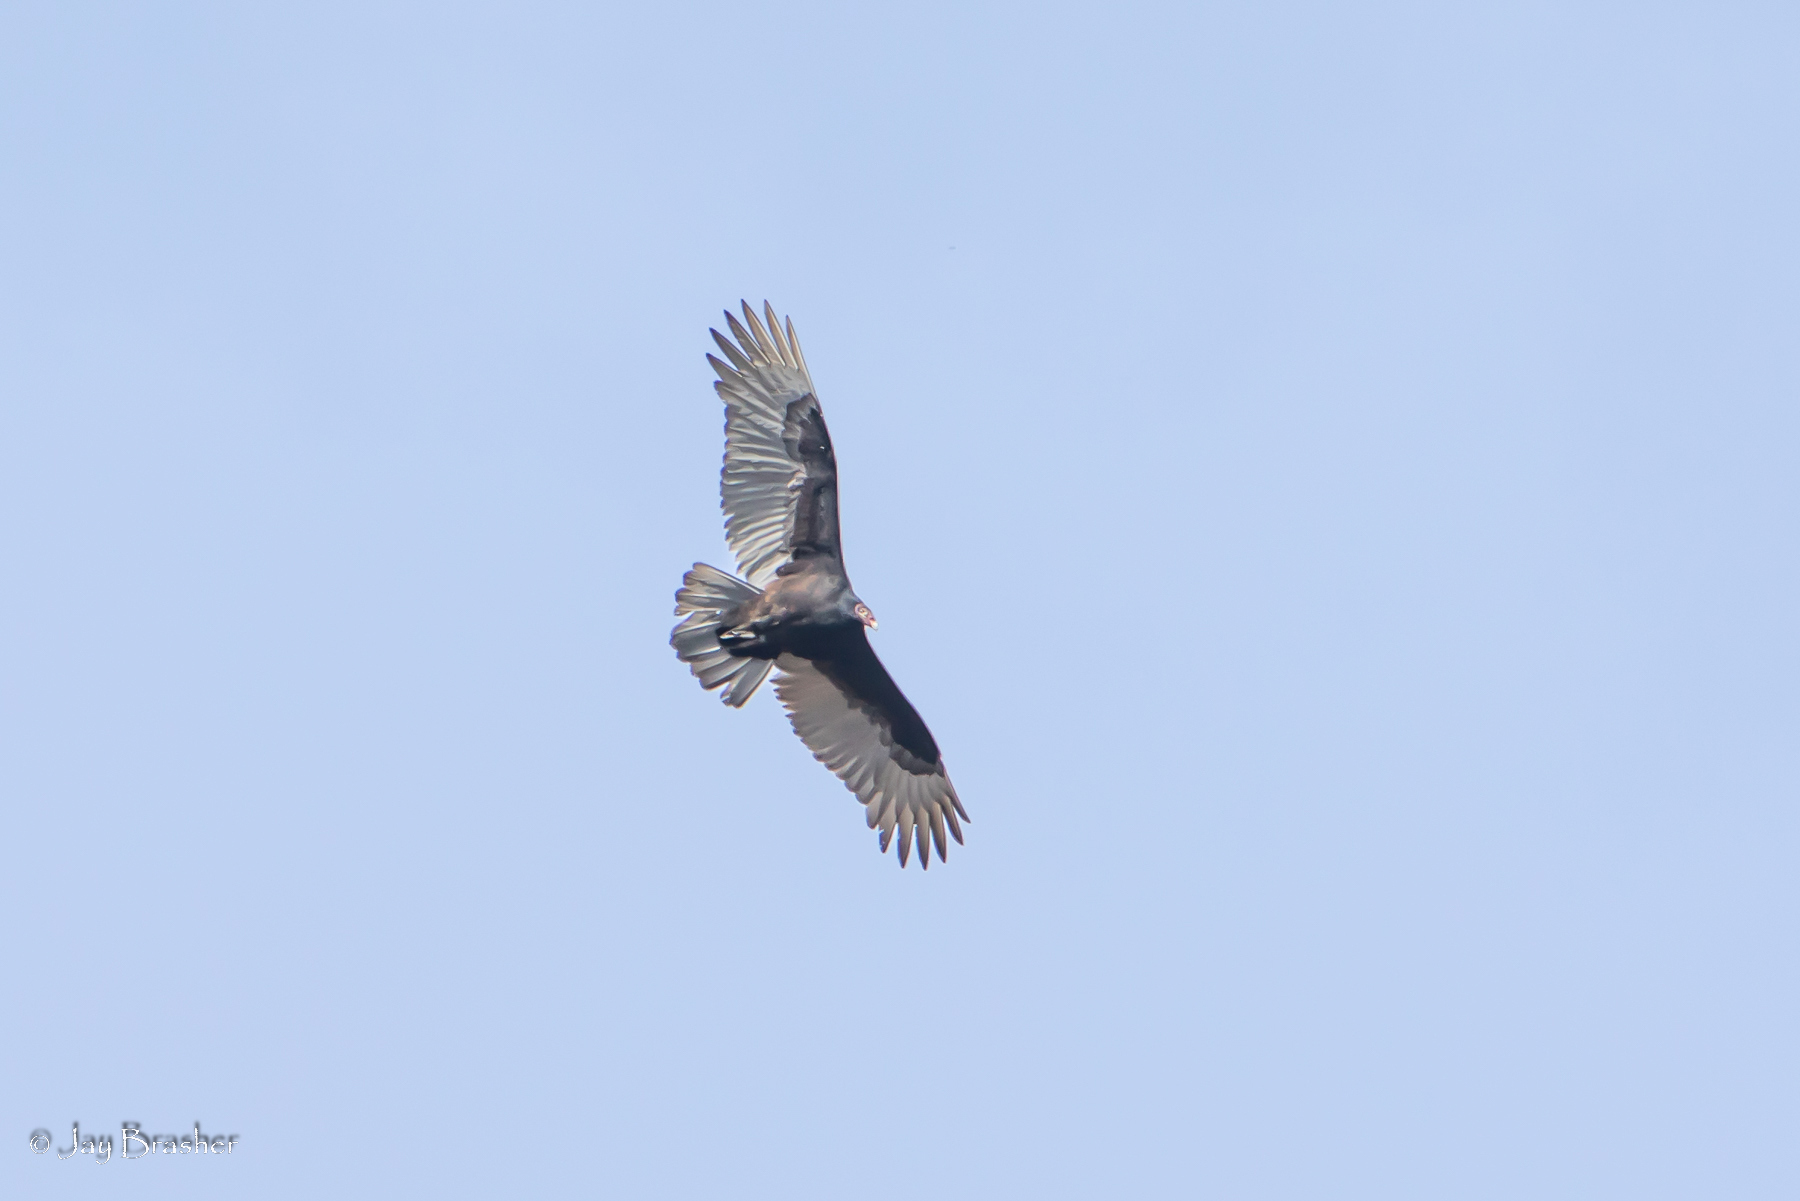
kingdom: Animalia
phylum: Chordata
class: Aves
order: Accipitriformes
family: Cathartidae
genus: Cathartes
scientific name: Cathartes aura
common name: Turkey vulture
